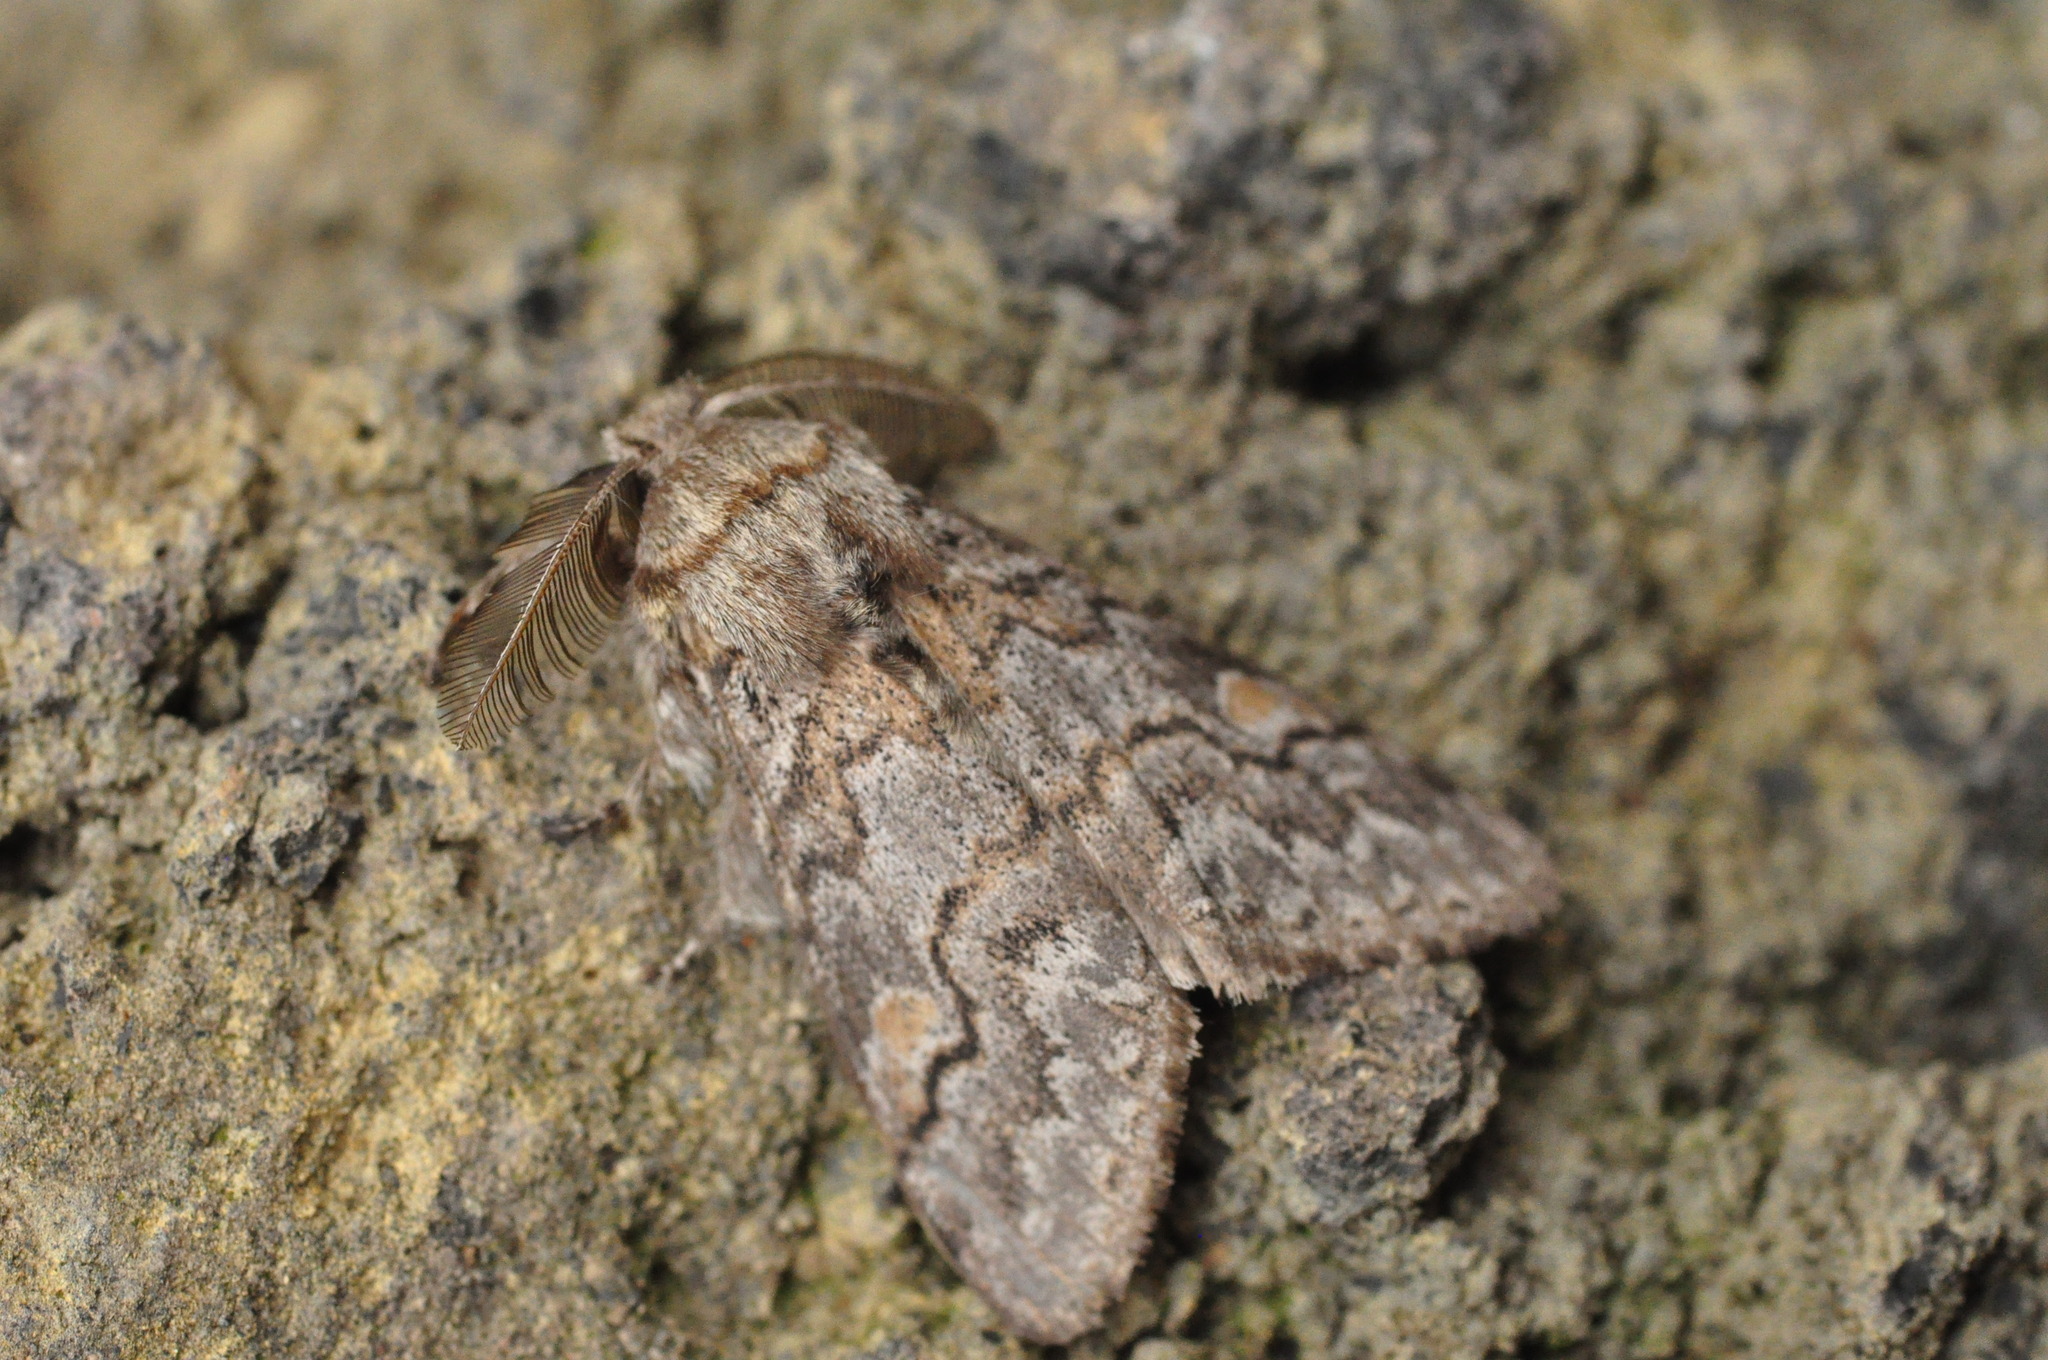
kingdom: Animalia
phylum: Arthropoda
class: Insecta
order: Lepidoptera
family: Erebidae
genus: Calliteara
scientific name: Calliteara
